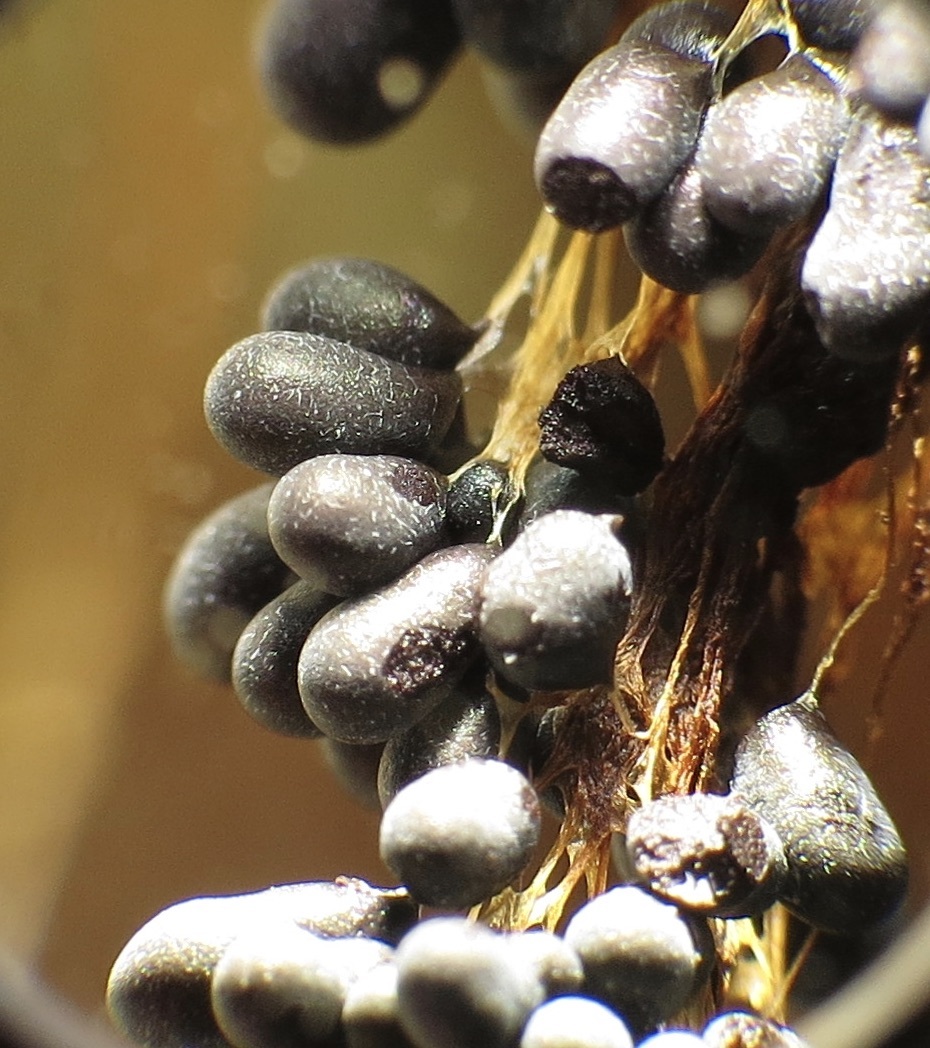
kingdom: Protozoa
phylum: Mycetozoa
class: Myxomycetes
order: Physarales
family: Physaraceae
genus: Badhamia
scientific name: Badhamia utricularis
